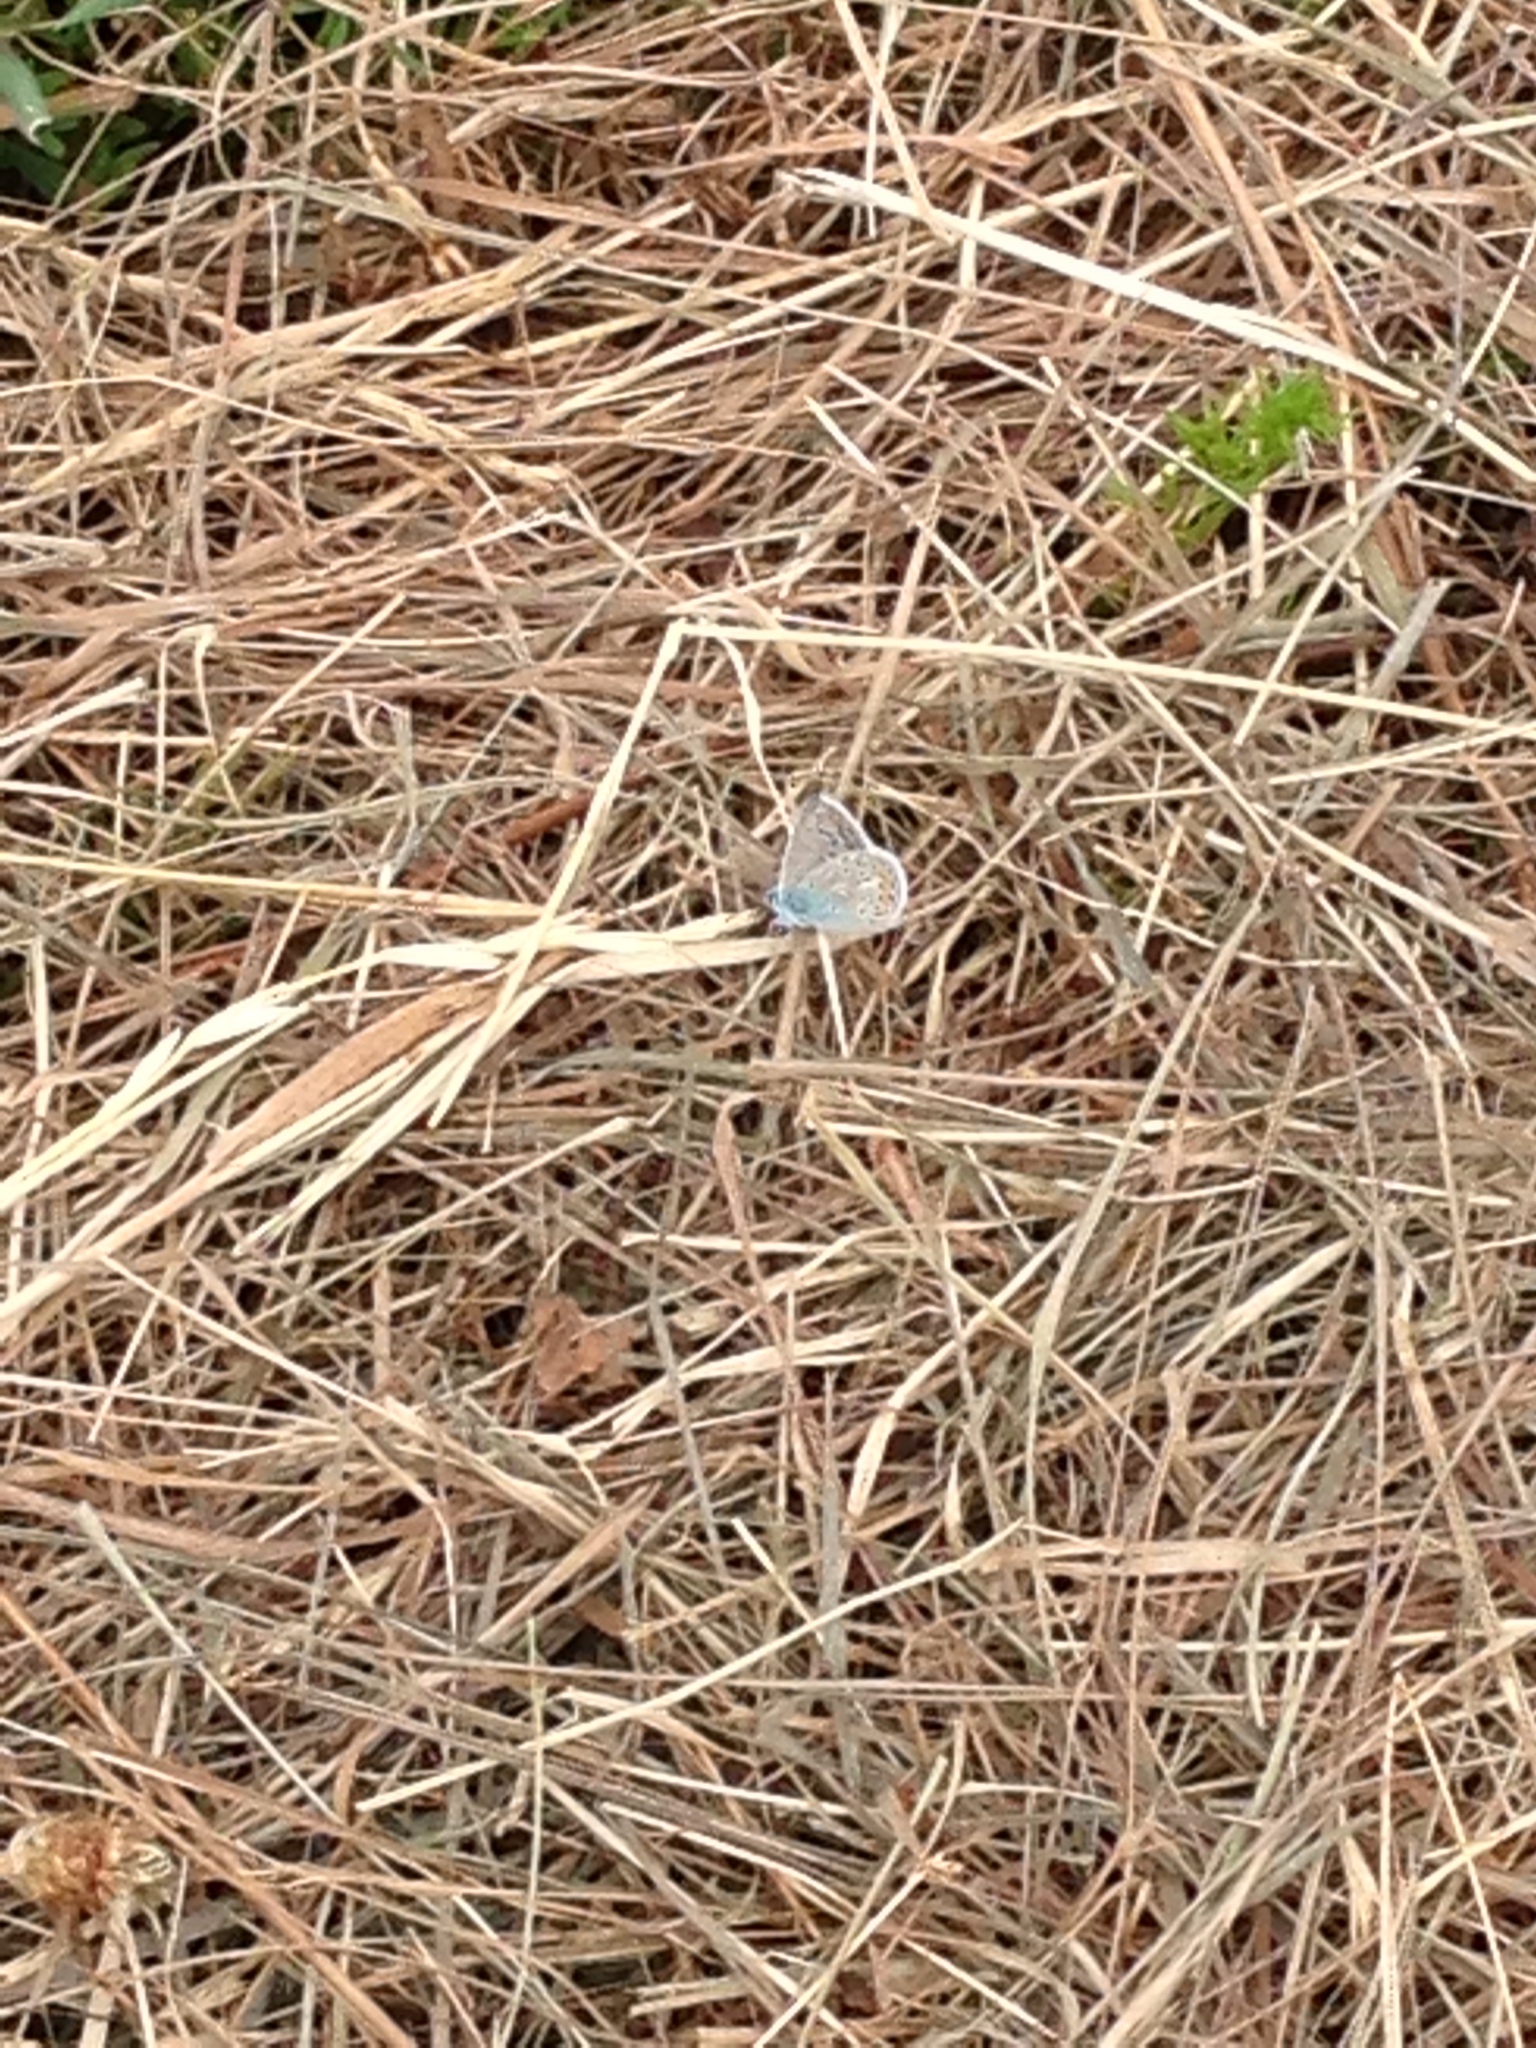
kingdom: Animalia
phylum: Arthropoda
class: Insecta
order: Lepidoptera
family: Lycaenidae
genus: Polyommatus
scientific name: Polyommatus icarus
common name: Common blue
